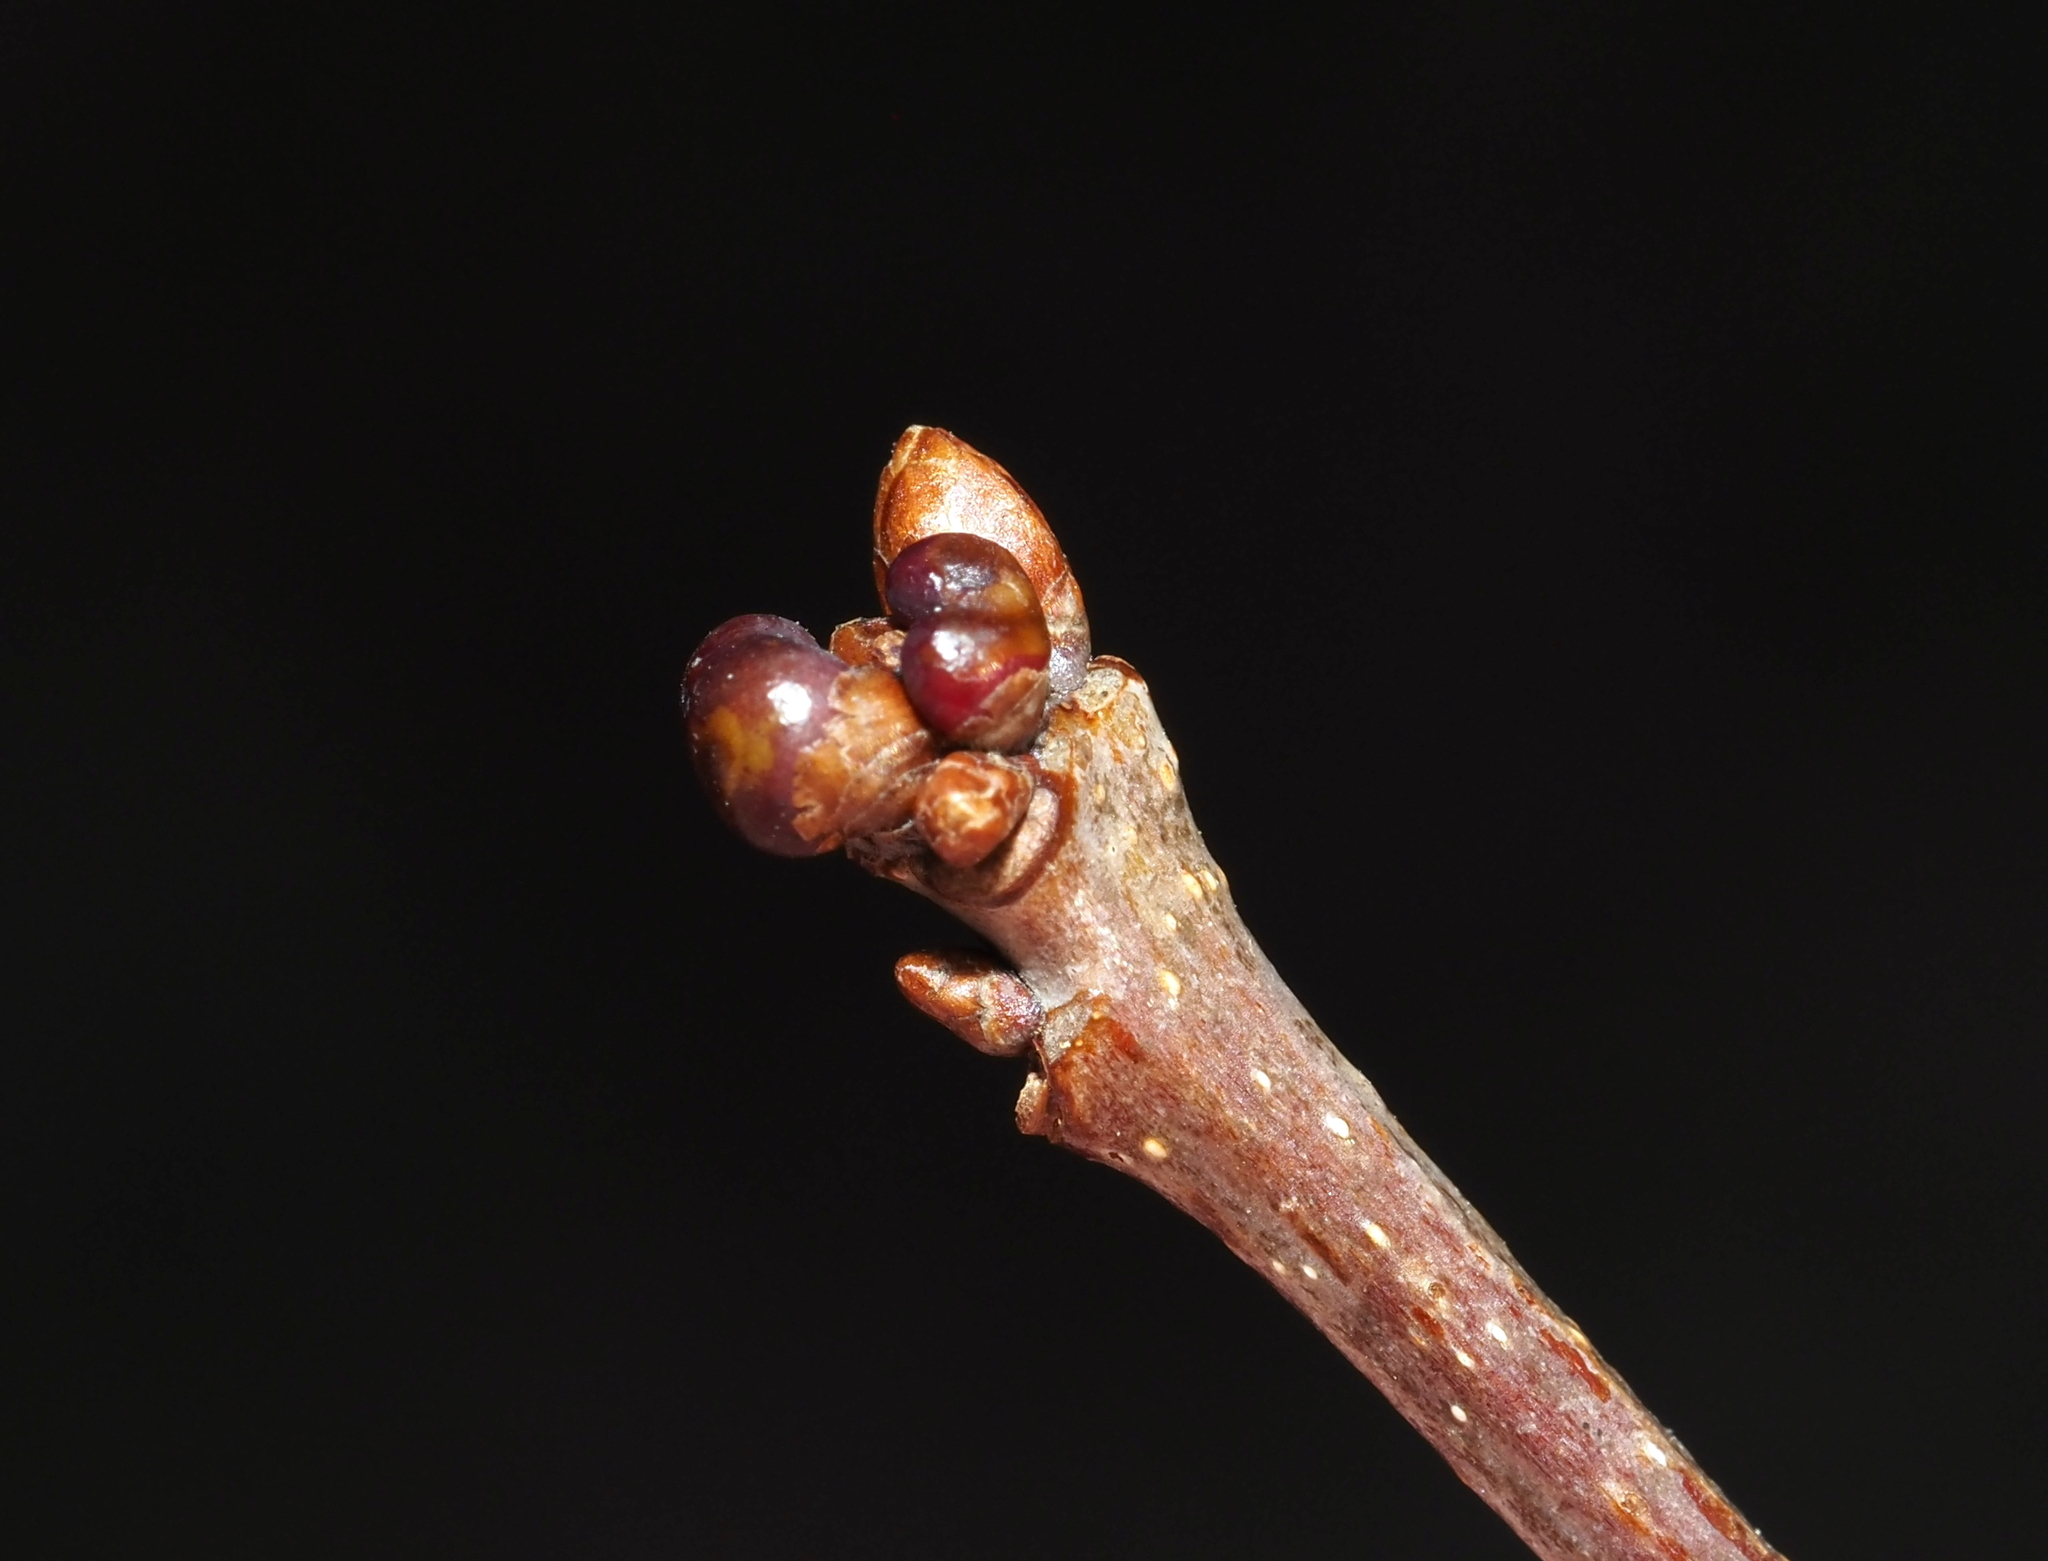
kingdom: Animalia
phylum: Arthropoda
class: Insecta
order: Hymenoptera
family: Cynipidae
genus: Neuroterus
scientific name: Neuroterus
